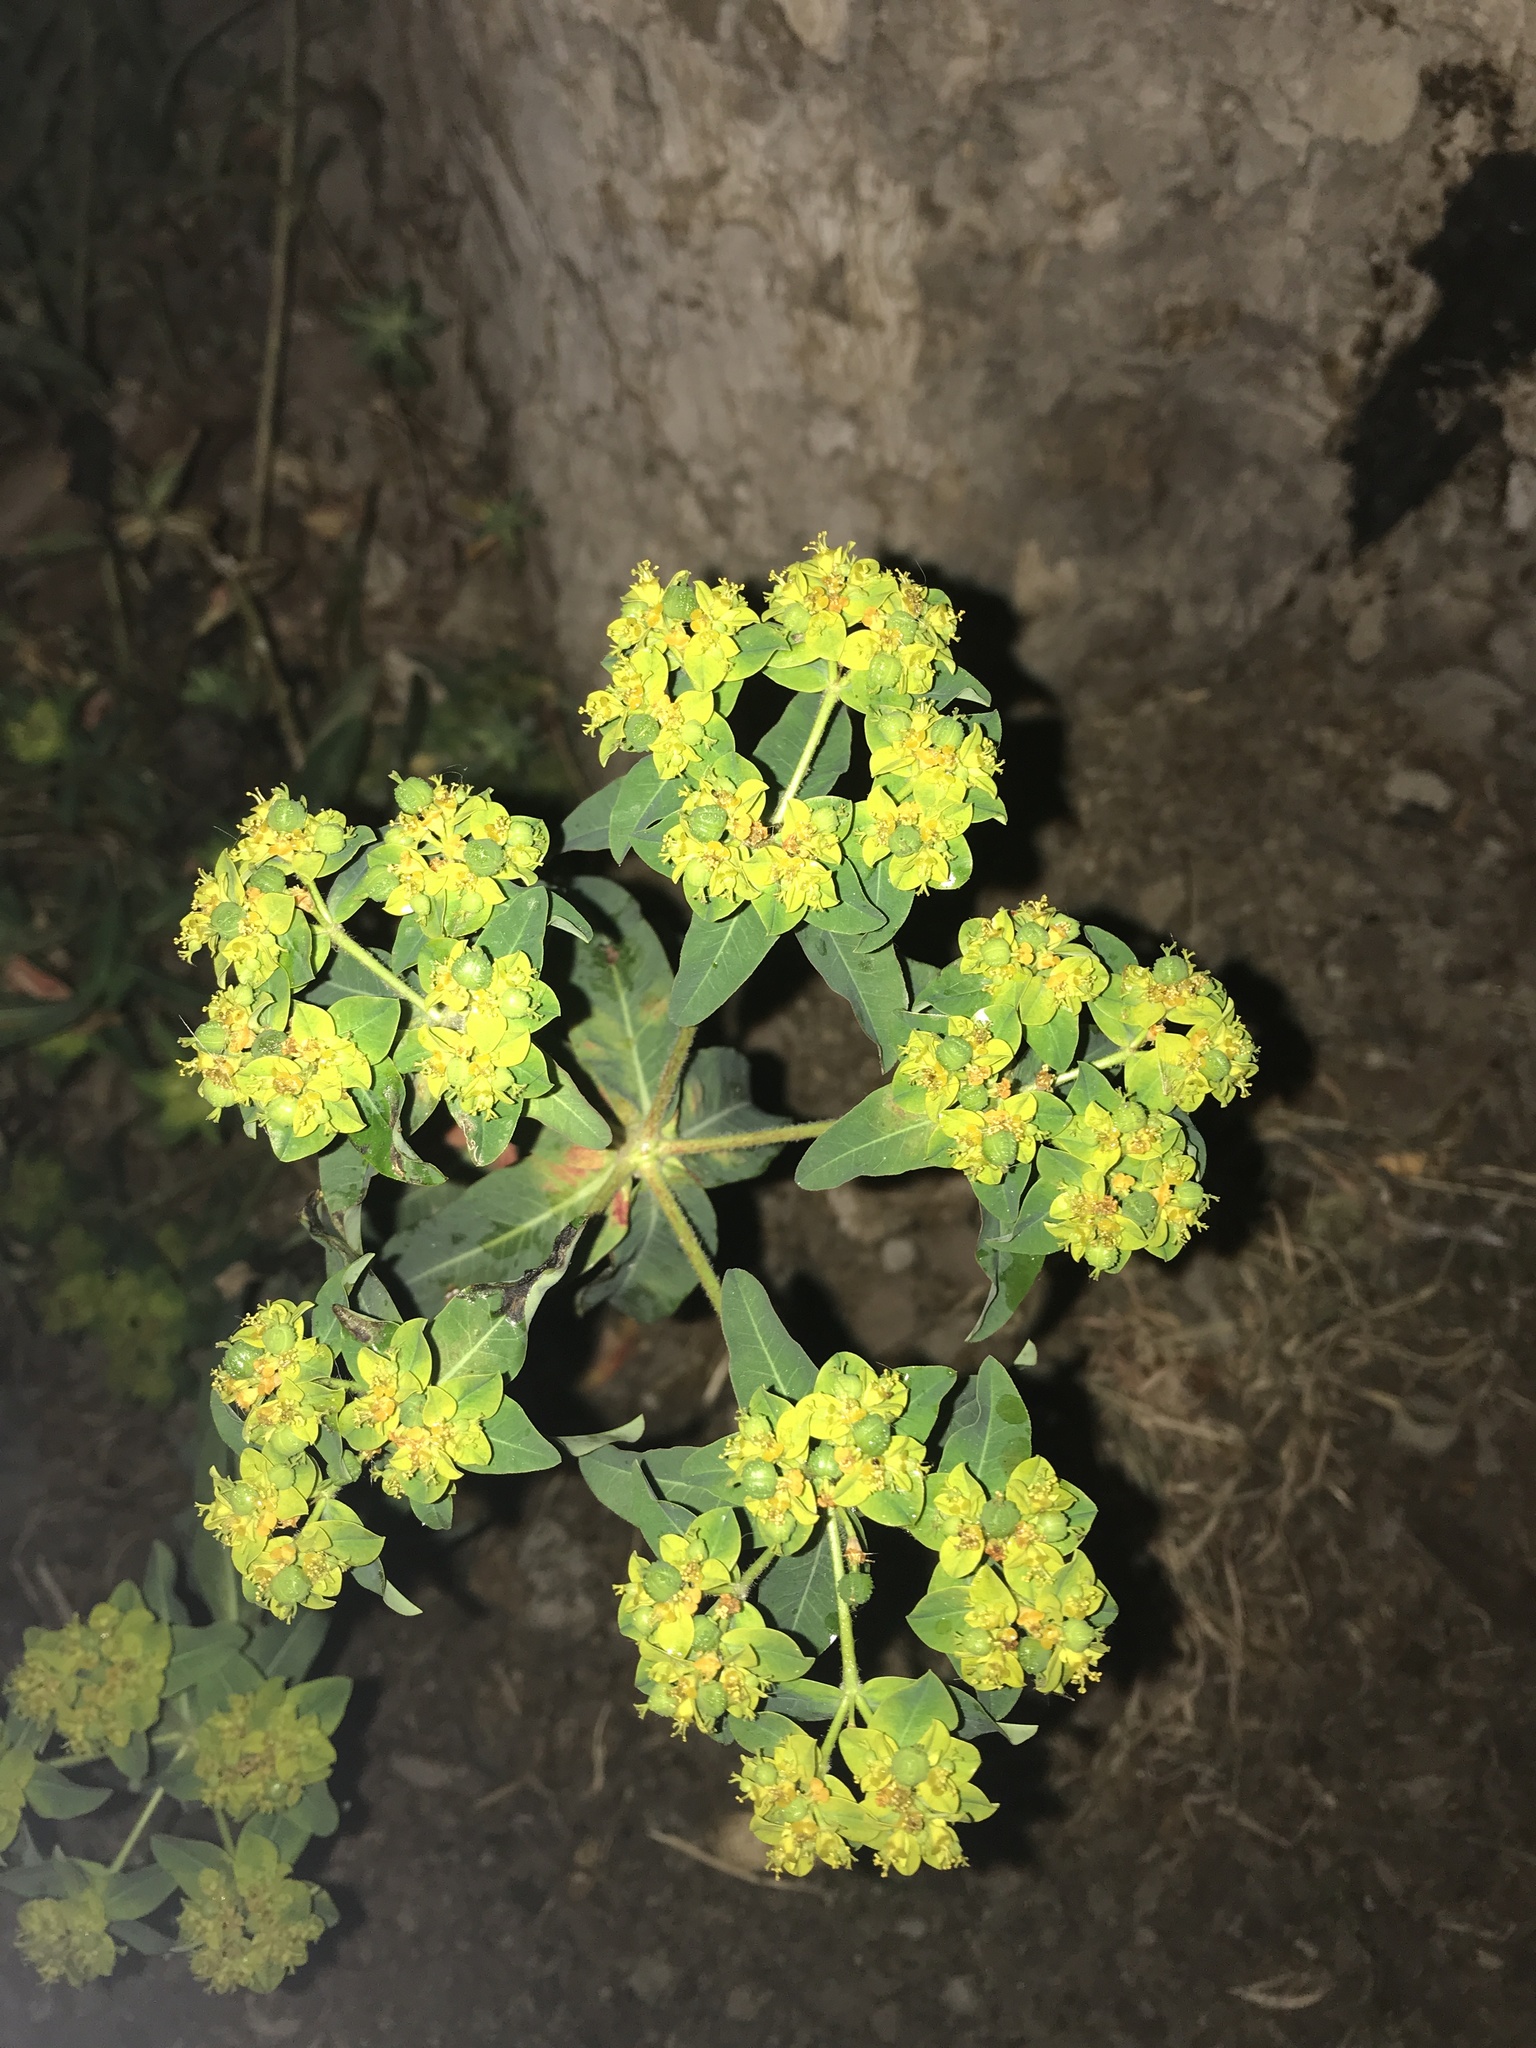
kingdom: Plantae
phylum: Tracheophyta
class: Magnoliopsida
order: Malpighiales
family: Euphorbiaceae
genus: Euphorbia
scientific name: Euphorbia oblongata
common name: Balkan spurge
